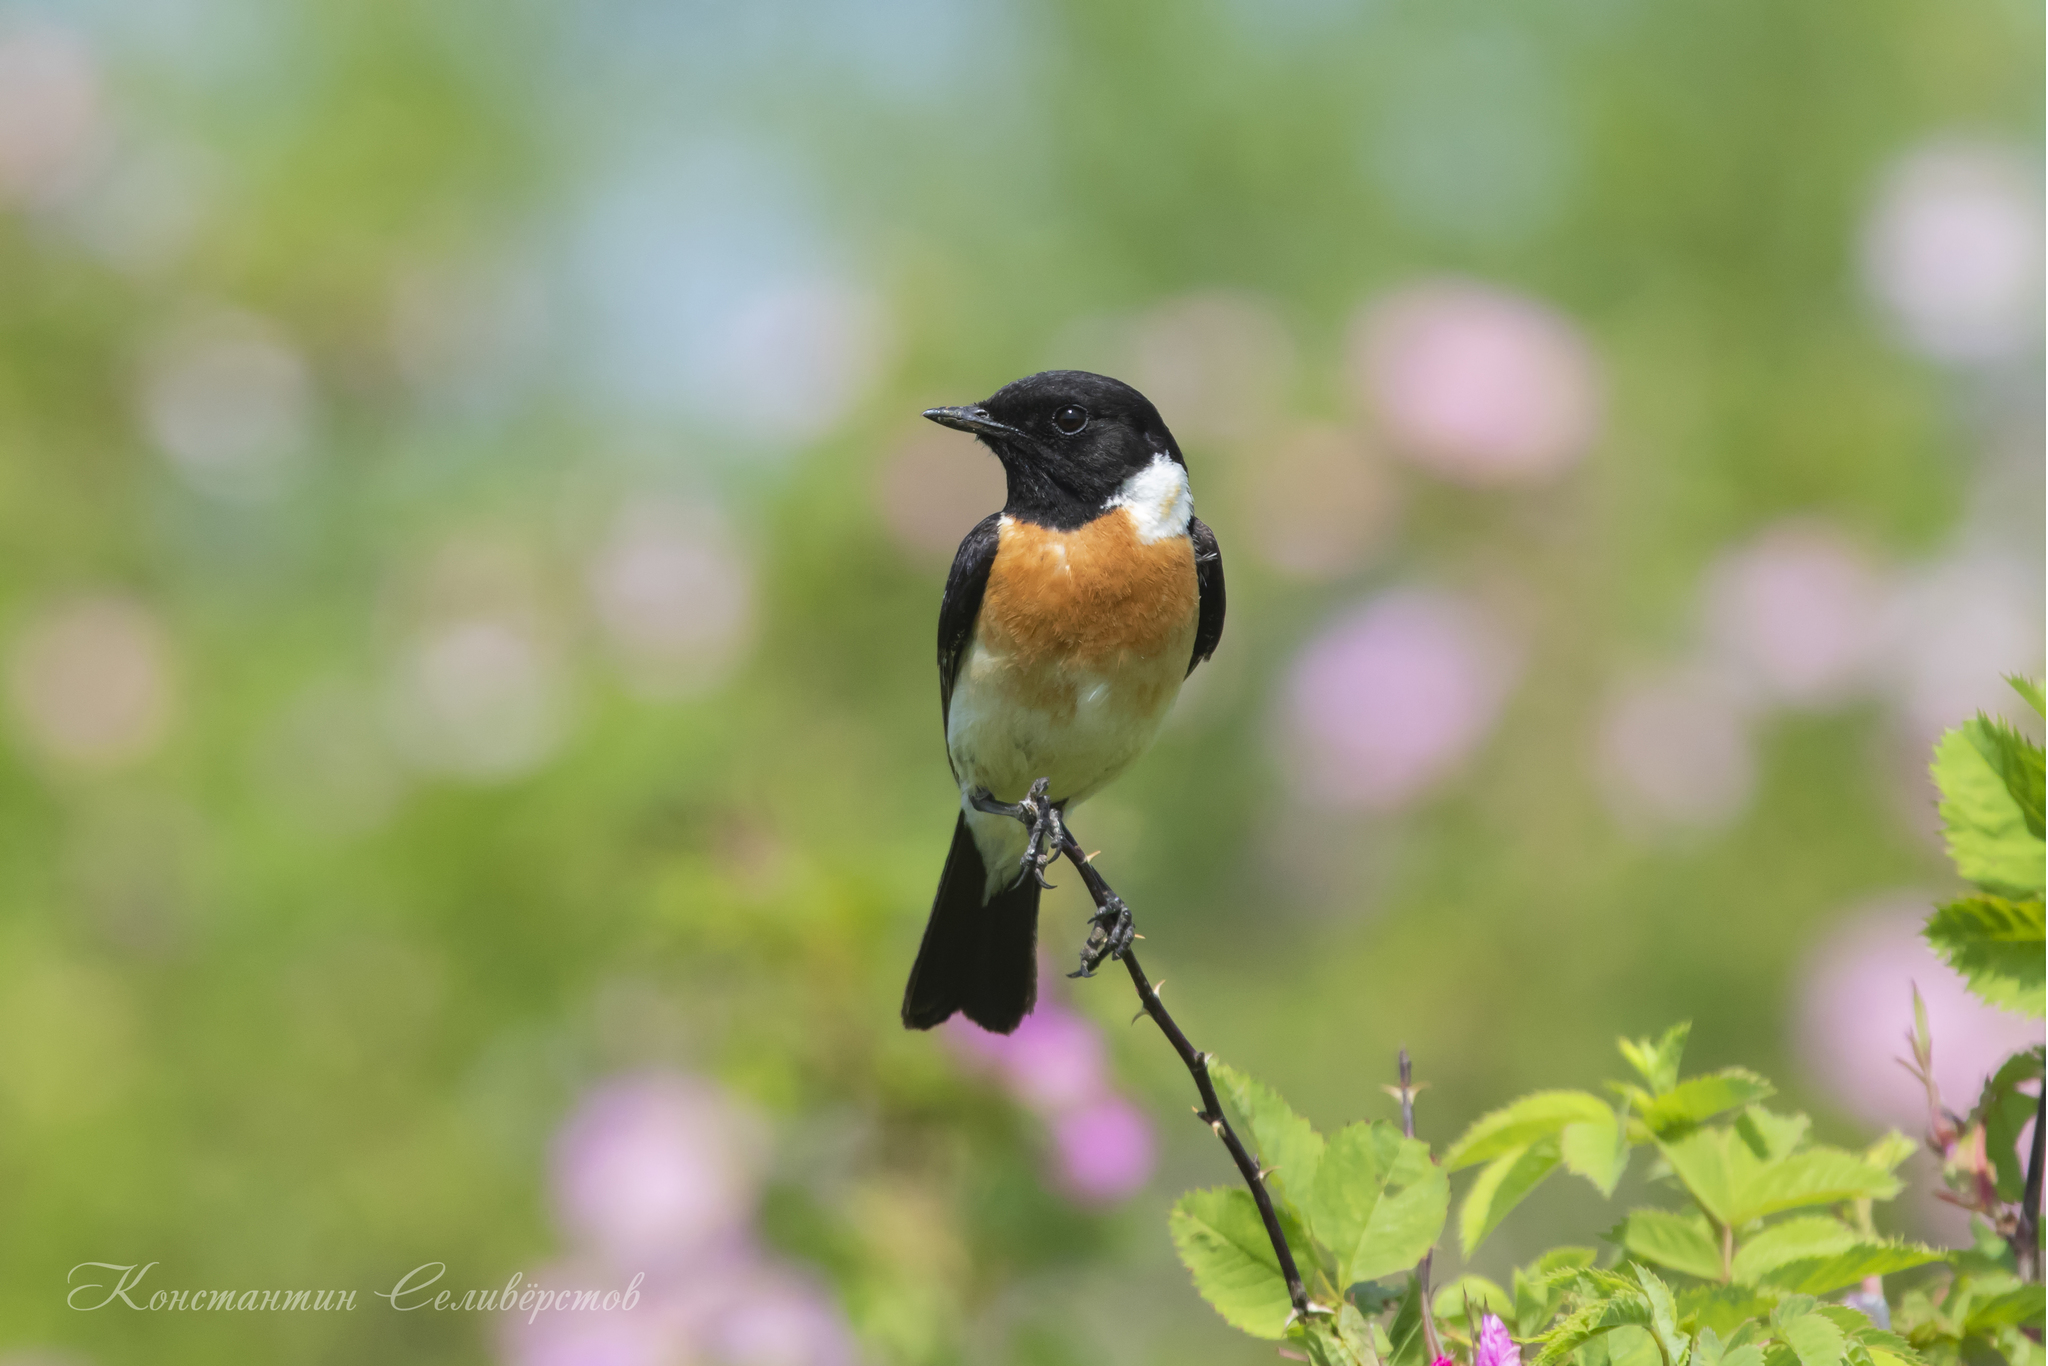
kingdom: Animalia
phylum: Chordata
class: Aves
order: Passeriformes
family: Muscicapidae
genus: Saxicola
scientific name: Saxicola maurus
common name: Siberian stonechat
